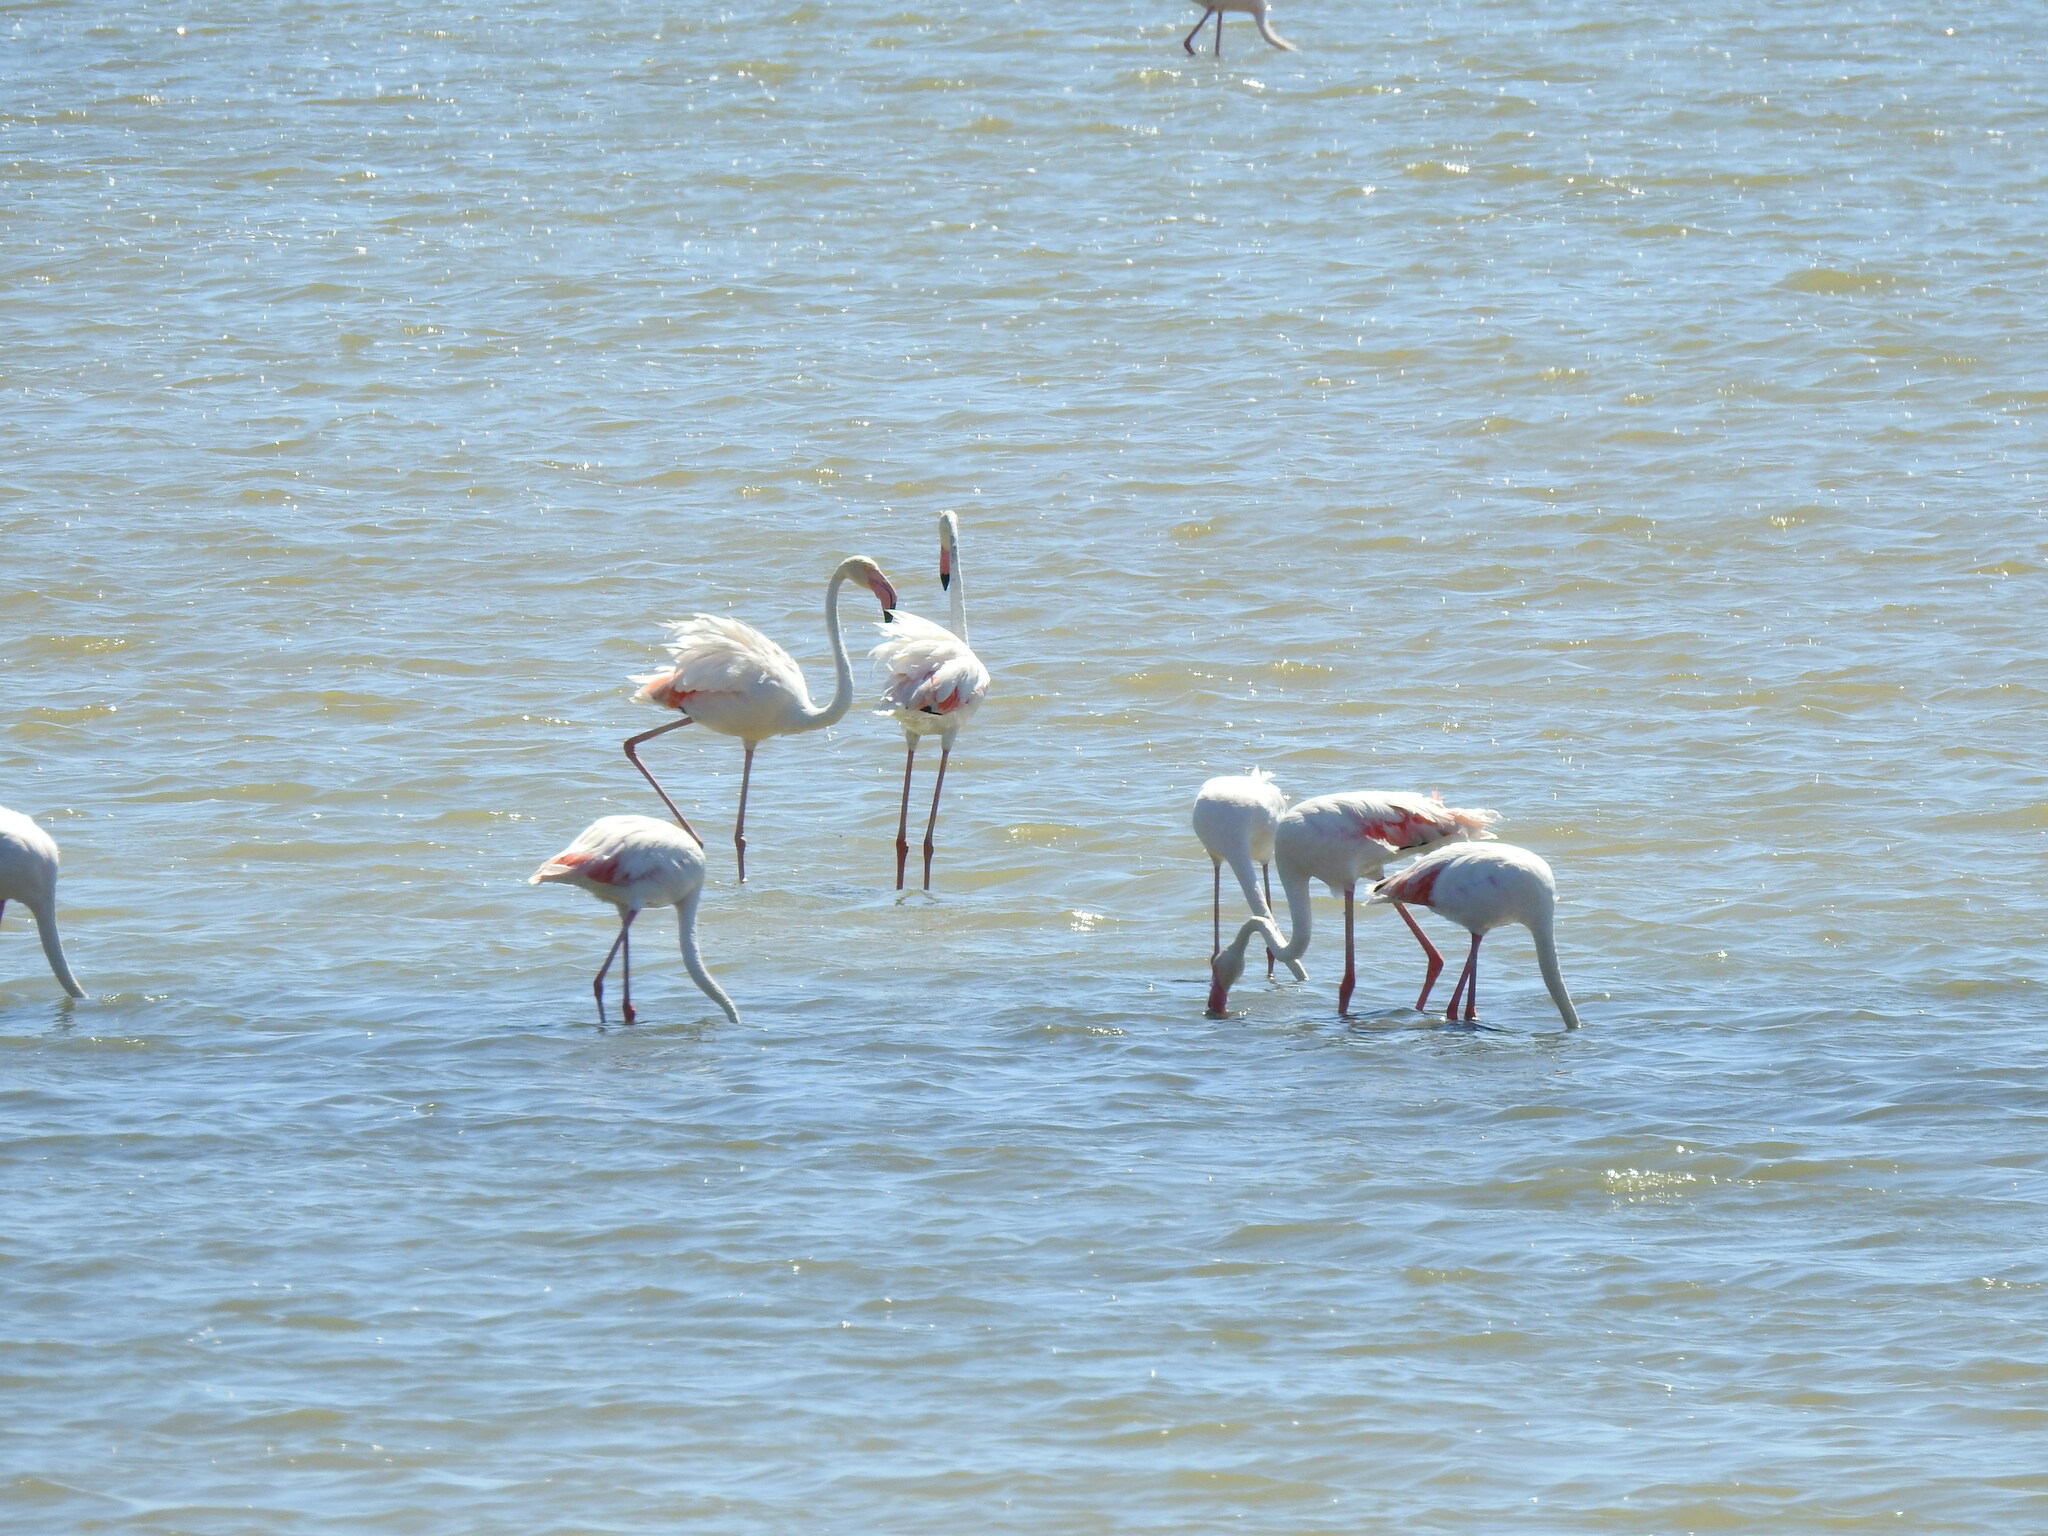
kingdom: Animalia
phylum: Chordata
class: Aves
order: Phoenicopteriformes
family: Phoenicopteridae
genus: Phoenicopterus
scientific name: Phoenicopterus roseus
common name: Greater flamingo
